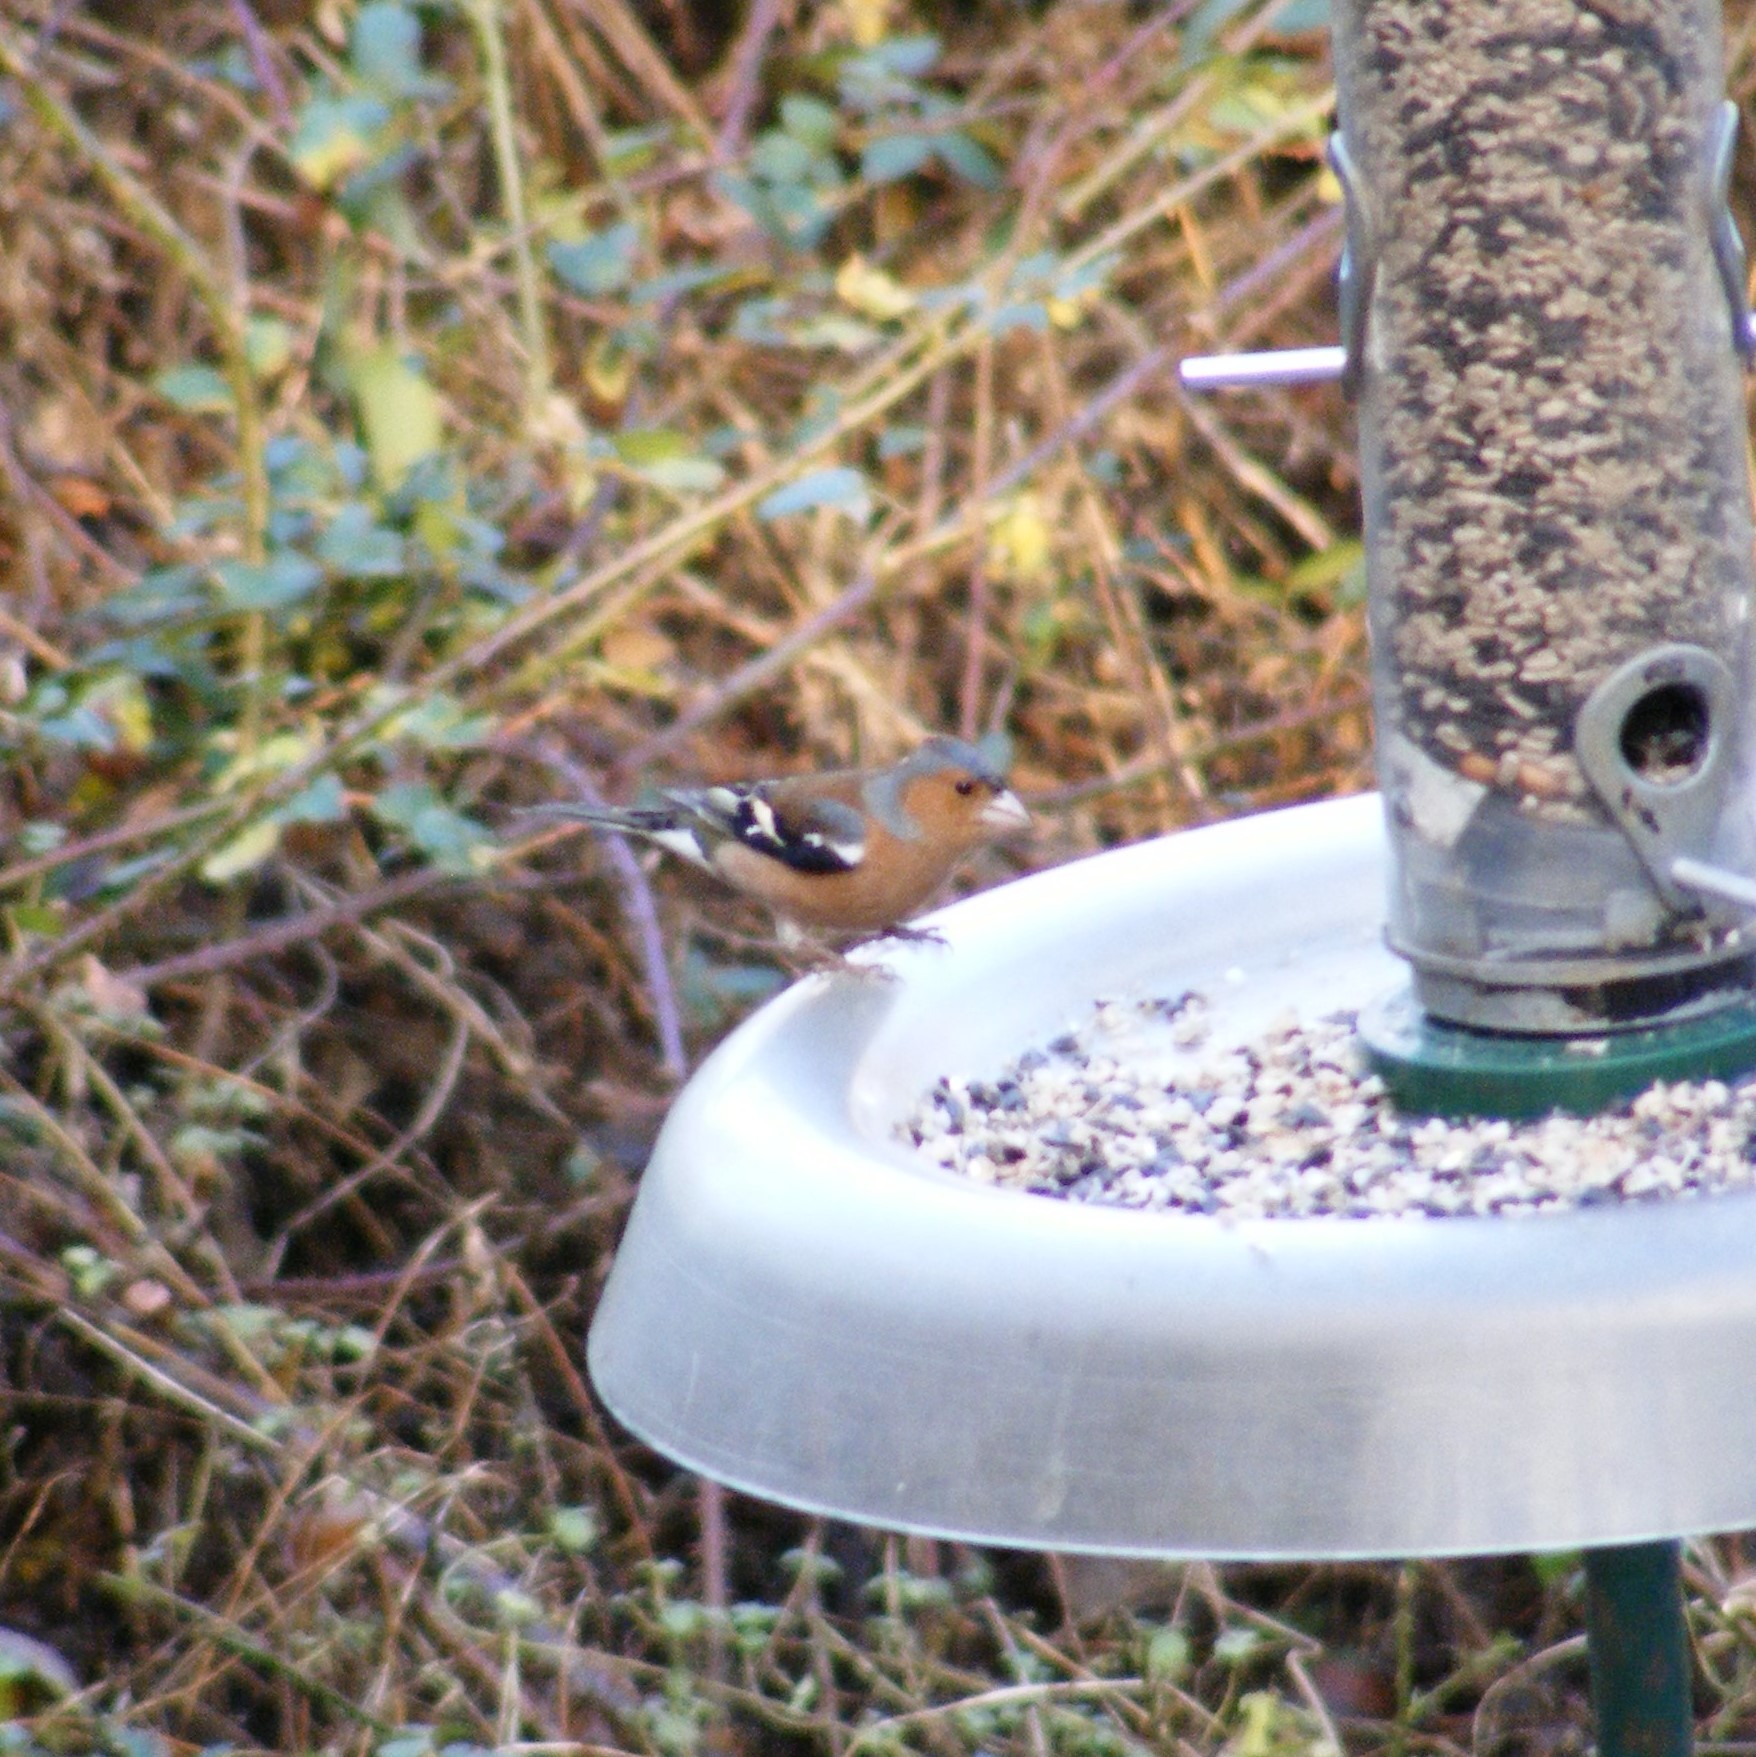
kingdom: Animalia
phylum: Chordata
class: Aves
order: Passeriformes
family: Fringillidae
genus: Fringilla
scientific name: Fringilla coelebs
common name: Common chaffinch
